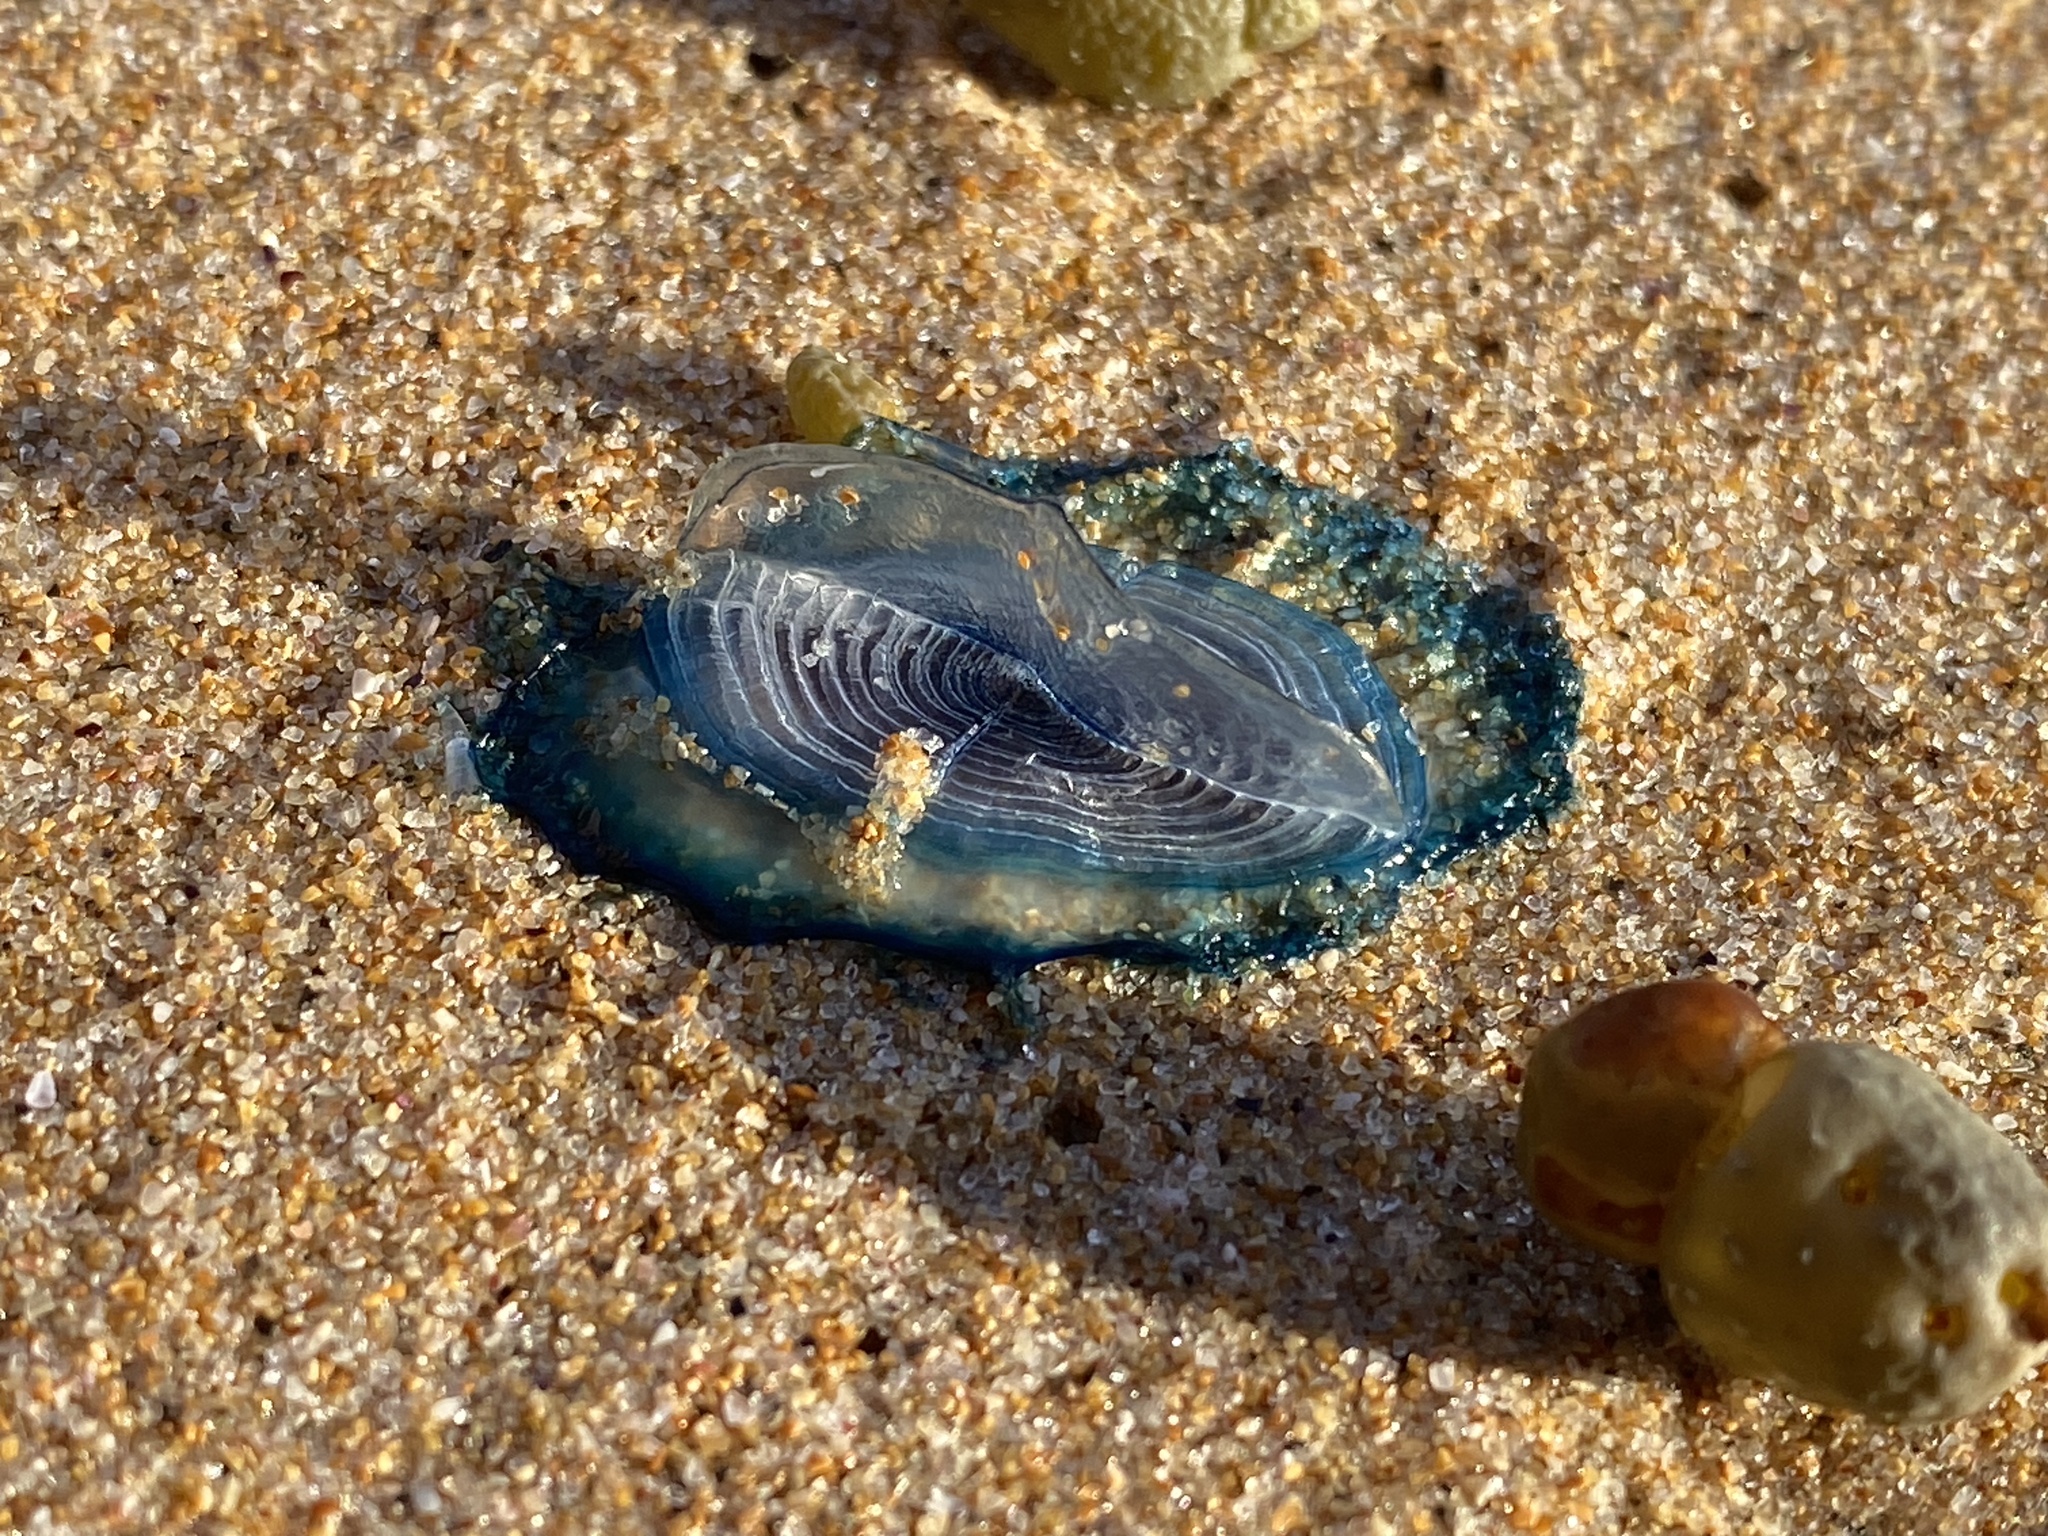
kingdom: Animalia
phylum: Cnidaria
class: Hydrozoa
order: Anthoathecata
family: Porpitidae
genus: Velella
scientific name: Velella velella
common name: By-the-wind-sailor
